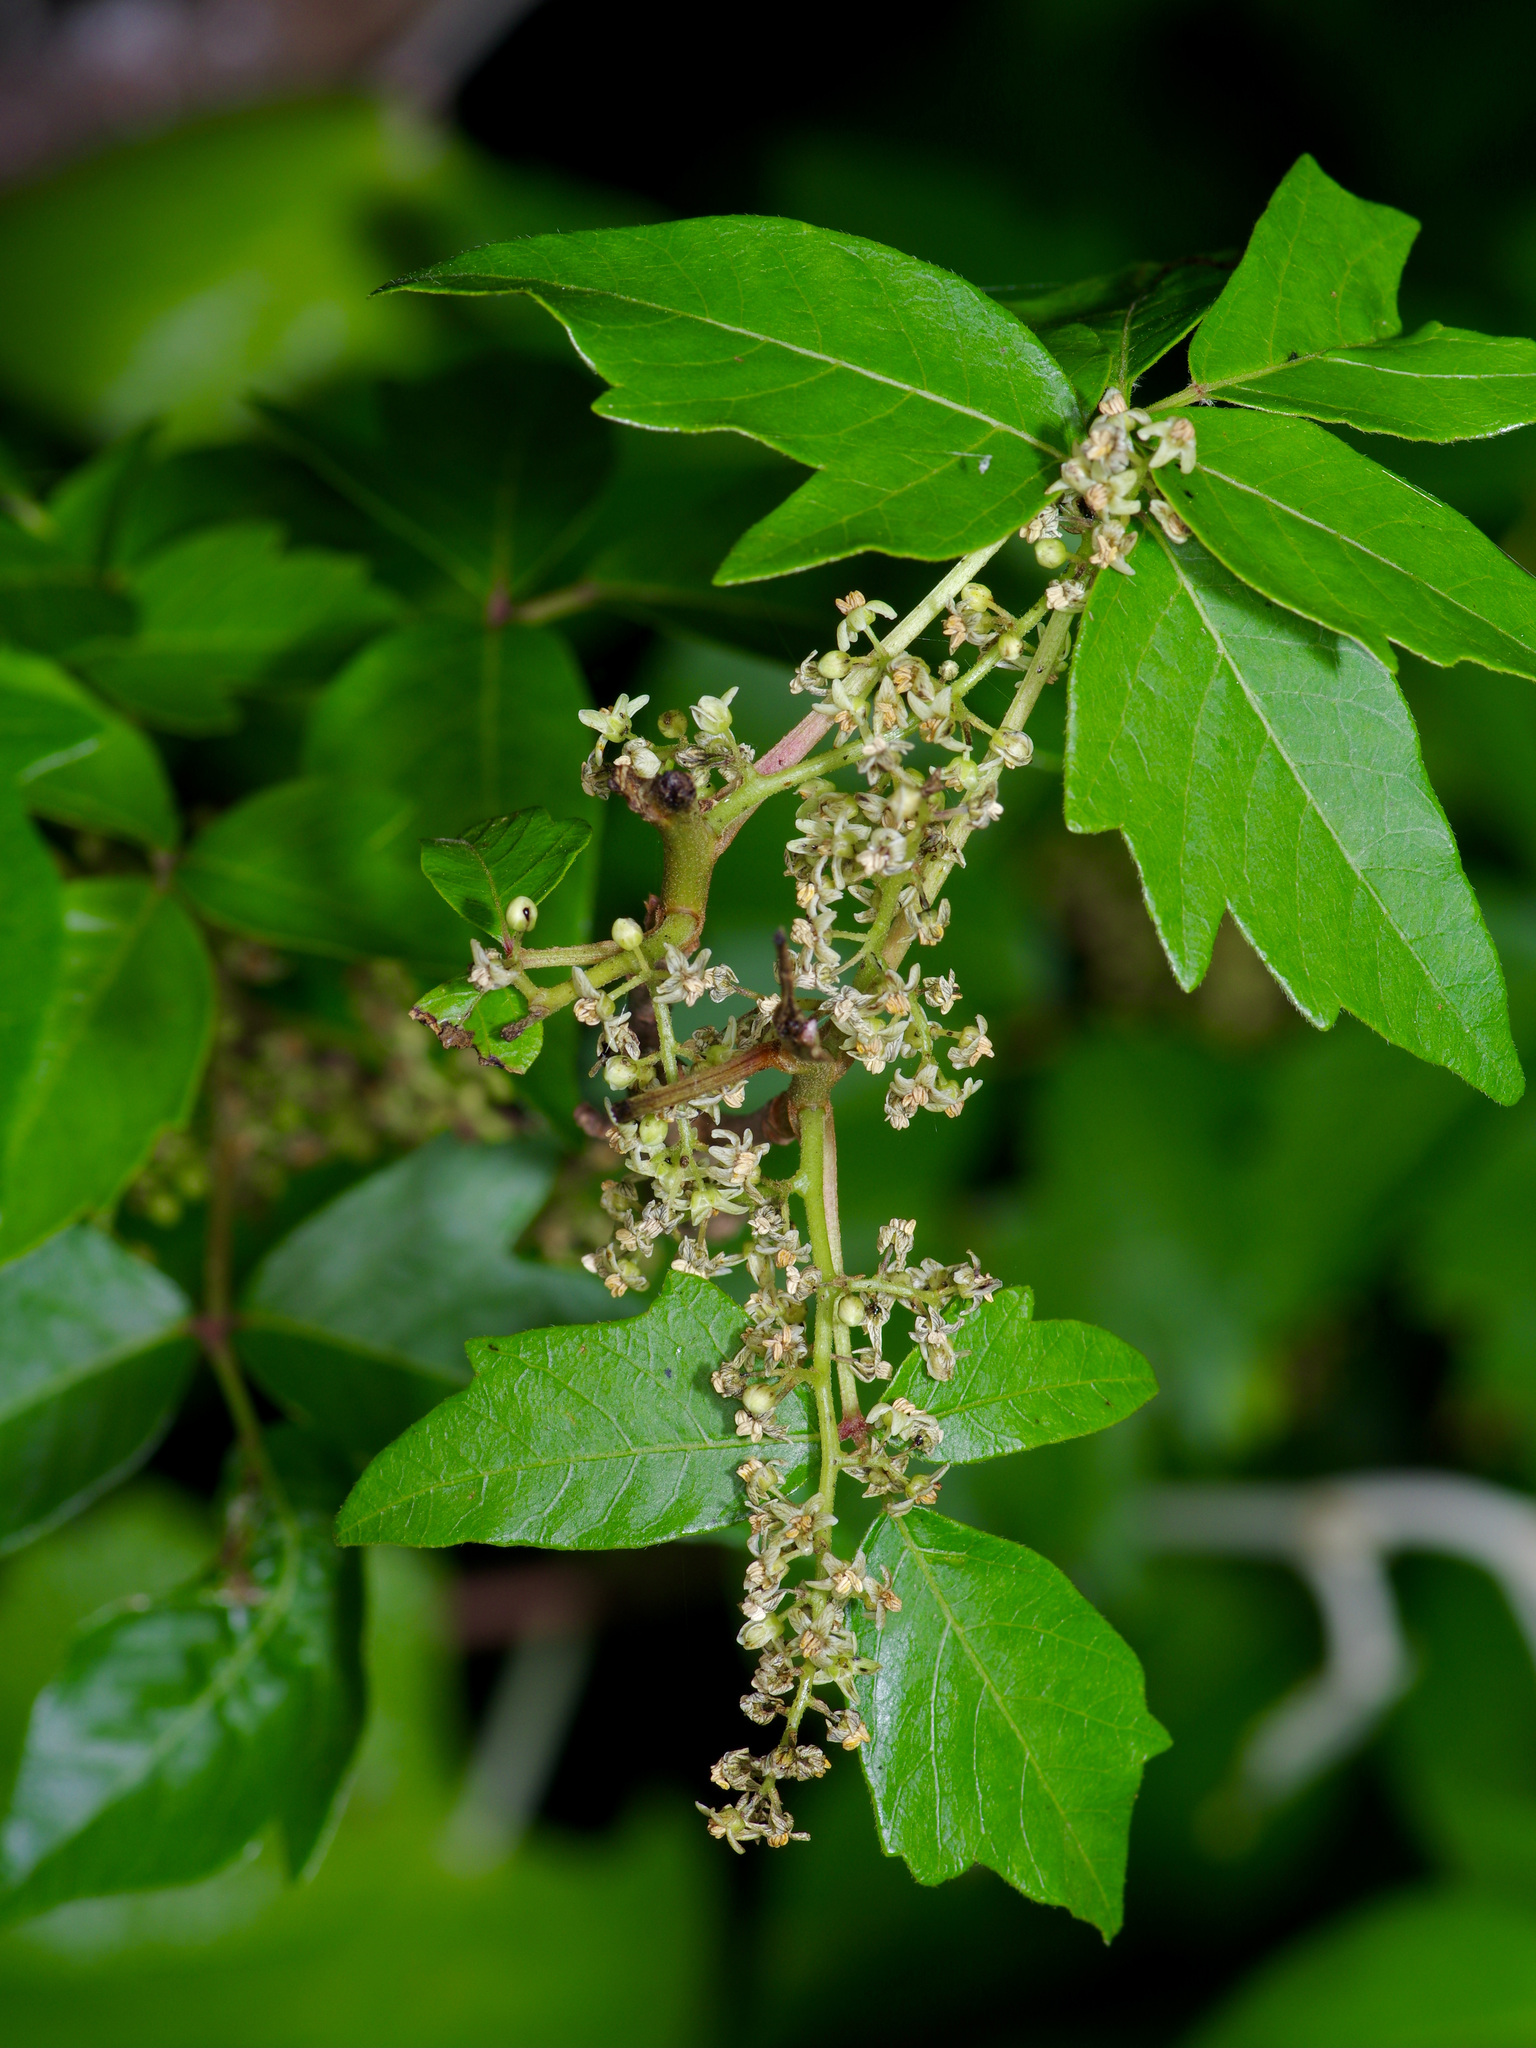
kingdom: Plantae
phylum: Tracheophyta
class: Magnoliopsida
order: Sapindales
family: Anacardiaceae
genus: Toxicodendron
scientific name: Toxicodendron radicans
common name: Poison ivy
